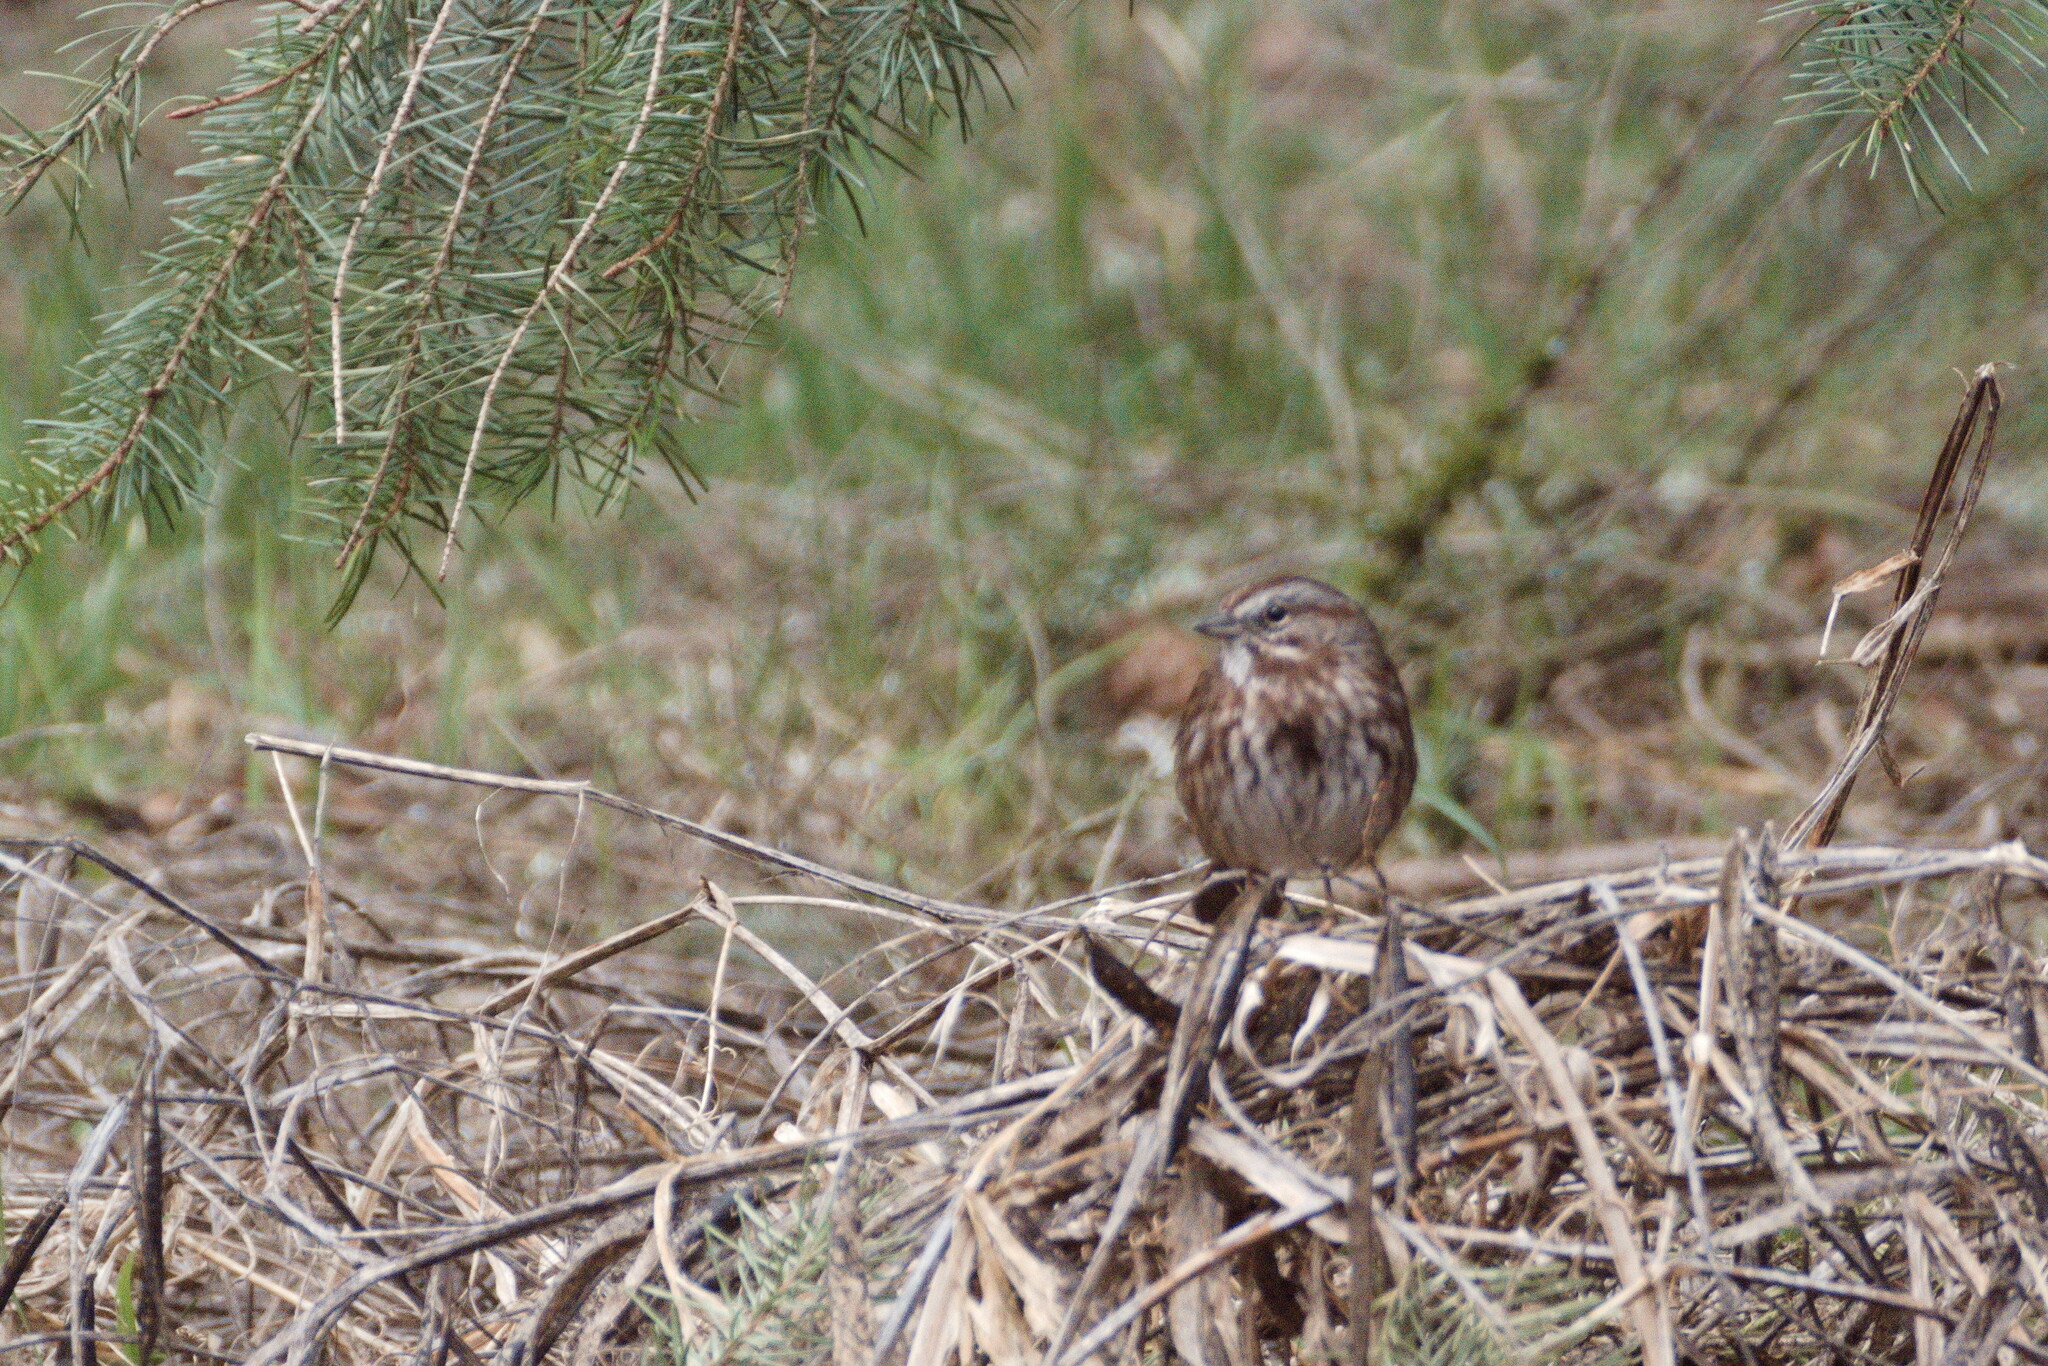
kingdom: Animalia
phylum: Chordata
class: Aves
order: Passeriformes
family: Passerellidae
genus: Melospiza
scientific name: Melospiza melodia
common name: Song sparrow
